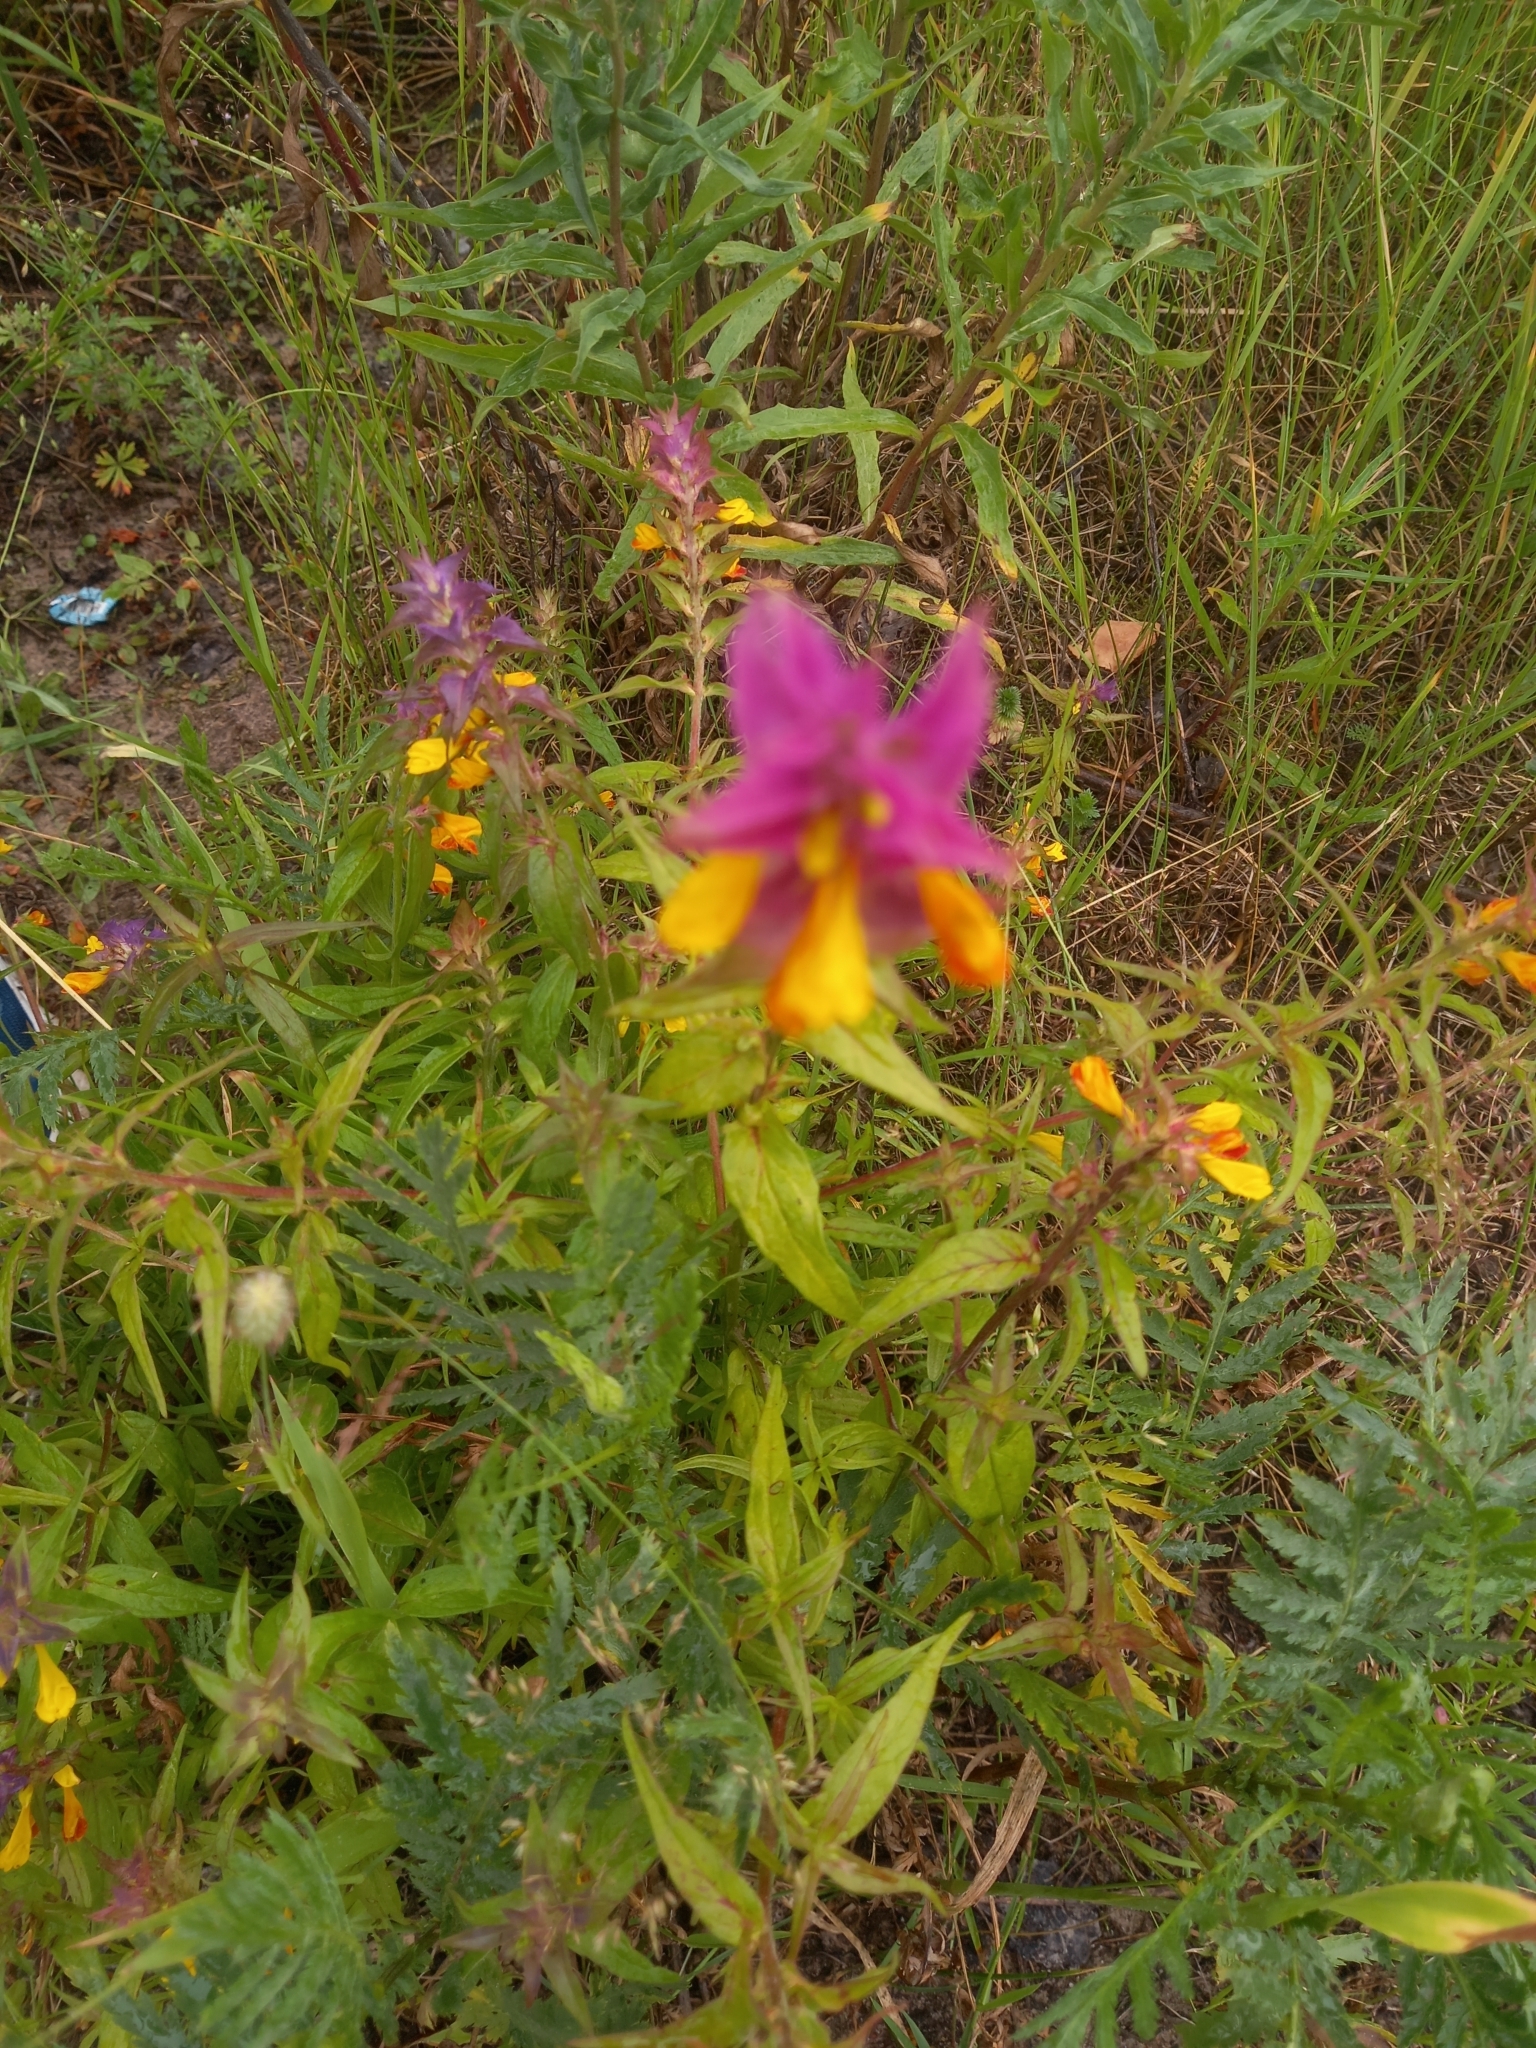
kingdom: Plantae
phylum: Tracheophyta
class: Magnoliopsida
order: Lamiales
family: Orobanchaceae
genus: Melampyrum
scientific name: Melampyrum nemorosum
